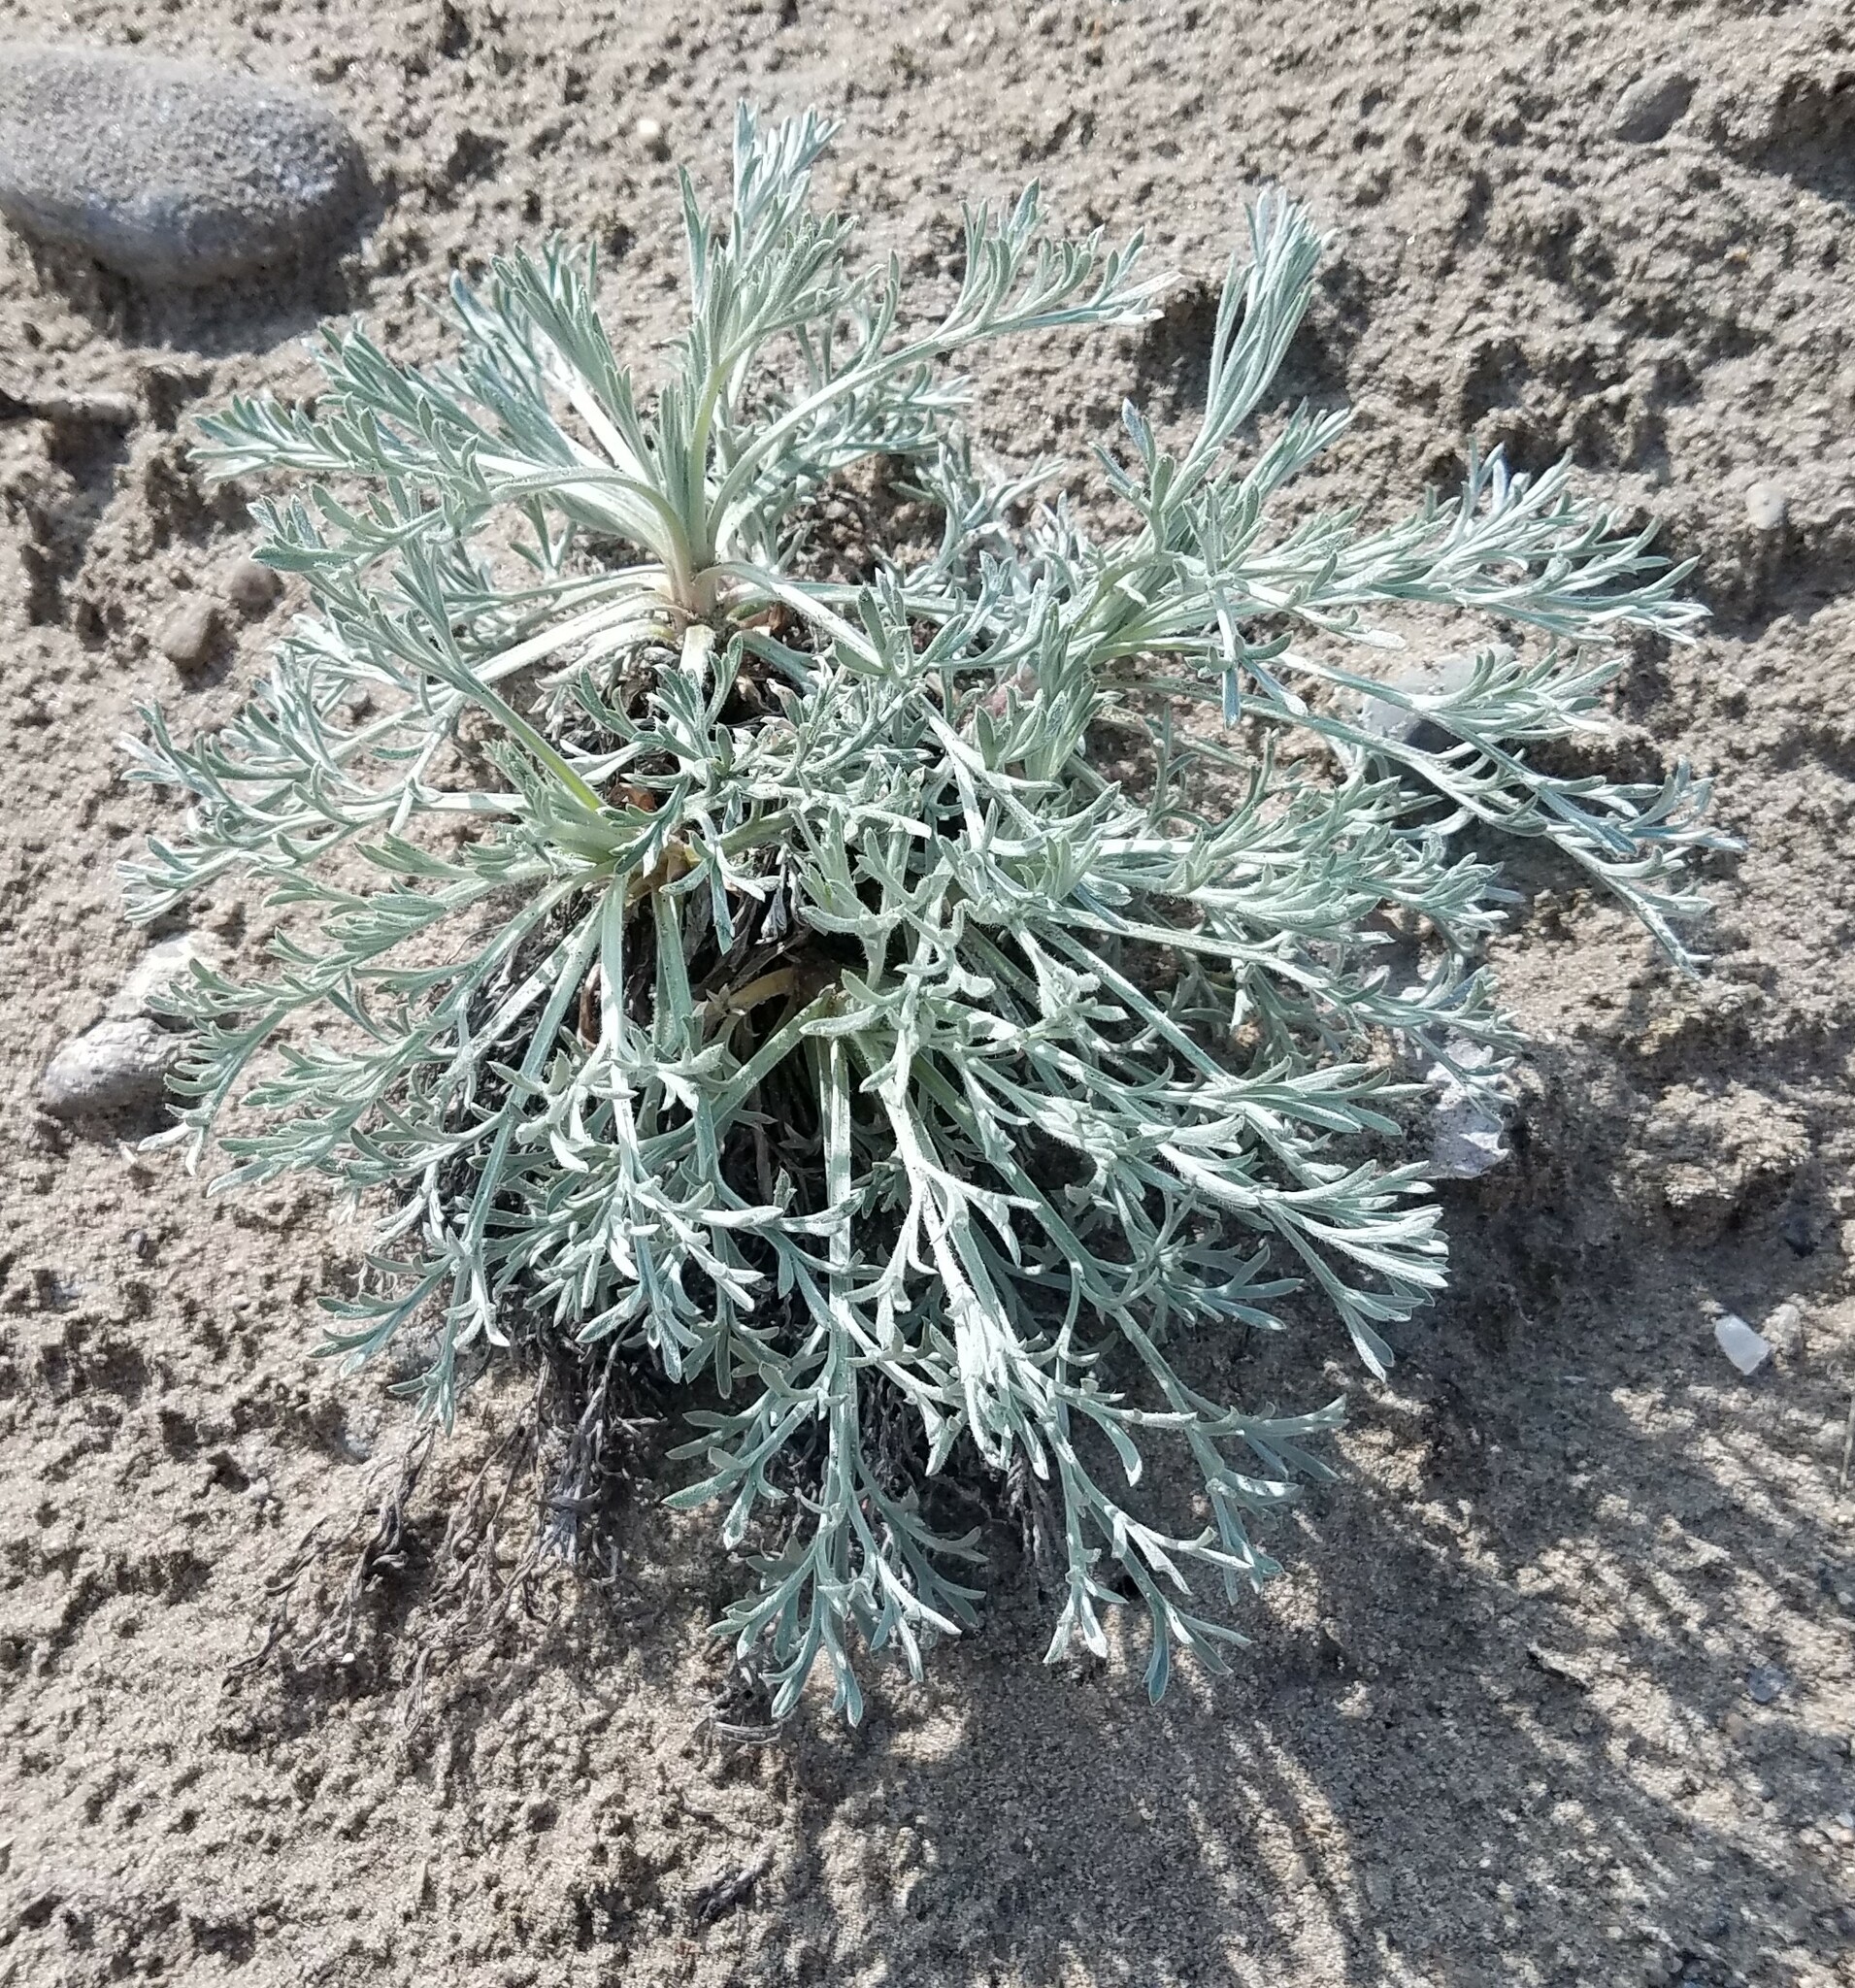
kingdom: Plantae
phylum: Tracheophyta
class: Magnoliopsida
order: Asterales
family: Asteraceae
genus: Artemisia
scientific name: Artemisia campestris
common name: Field wormwood
